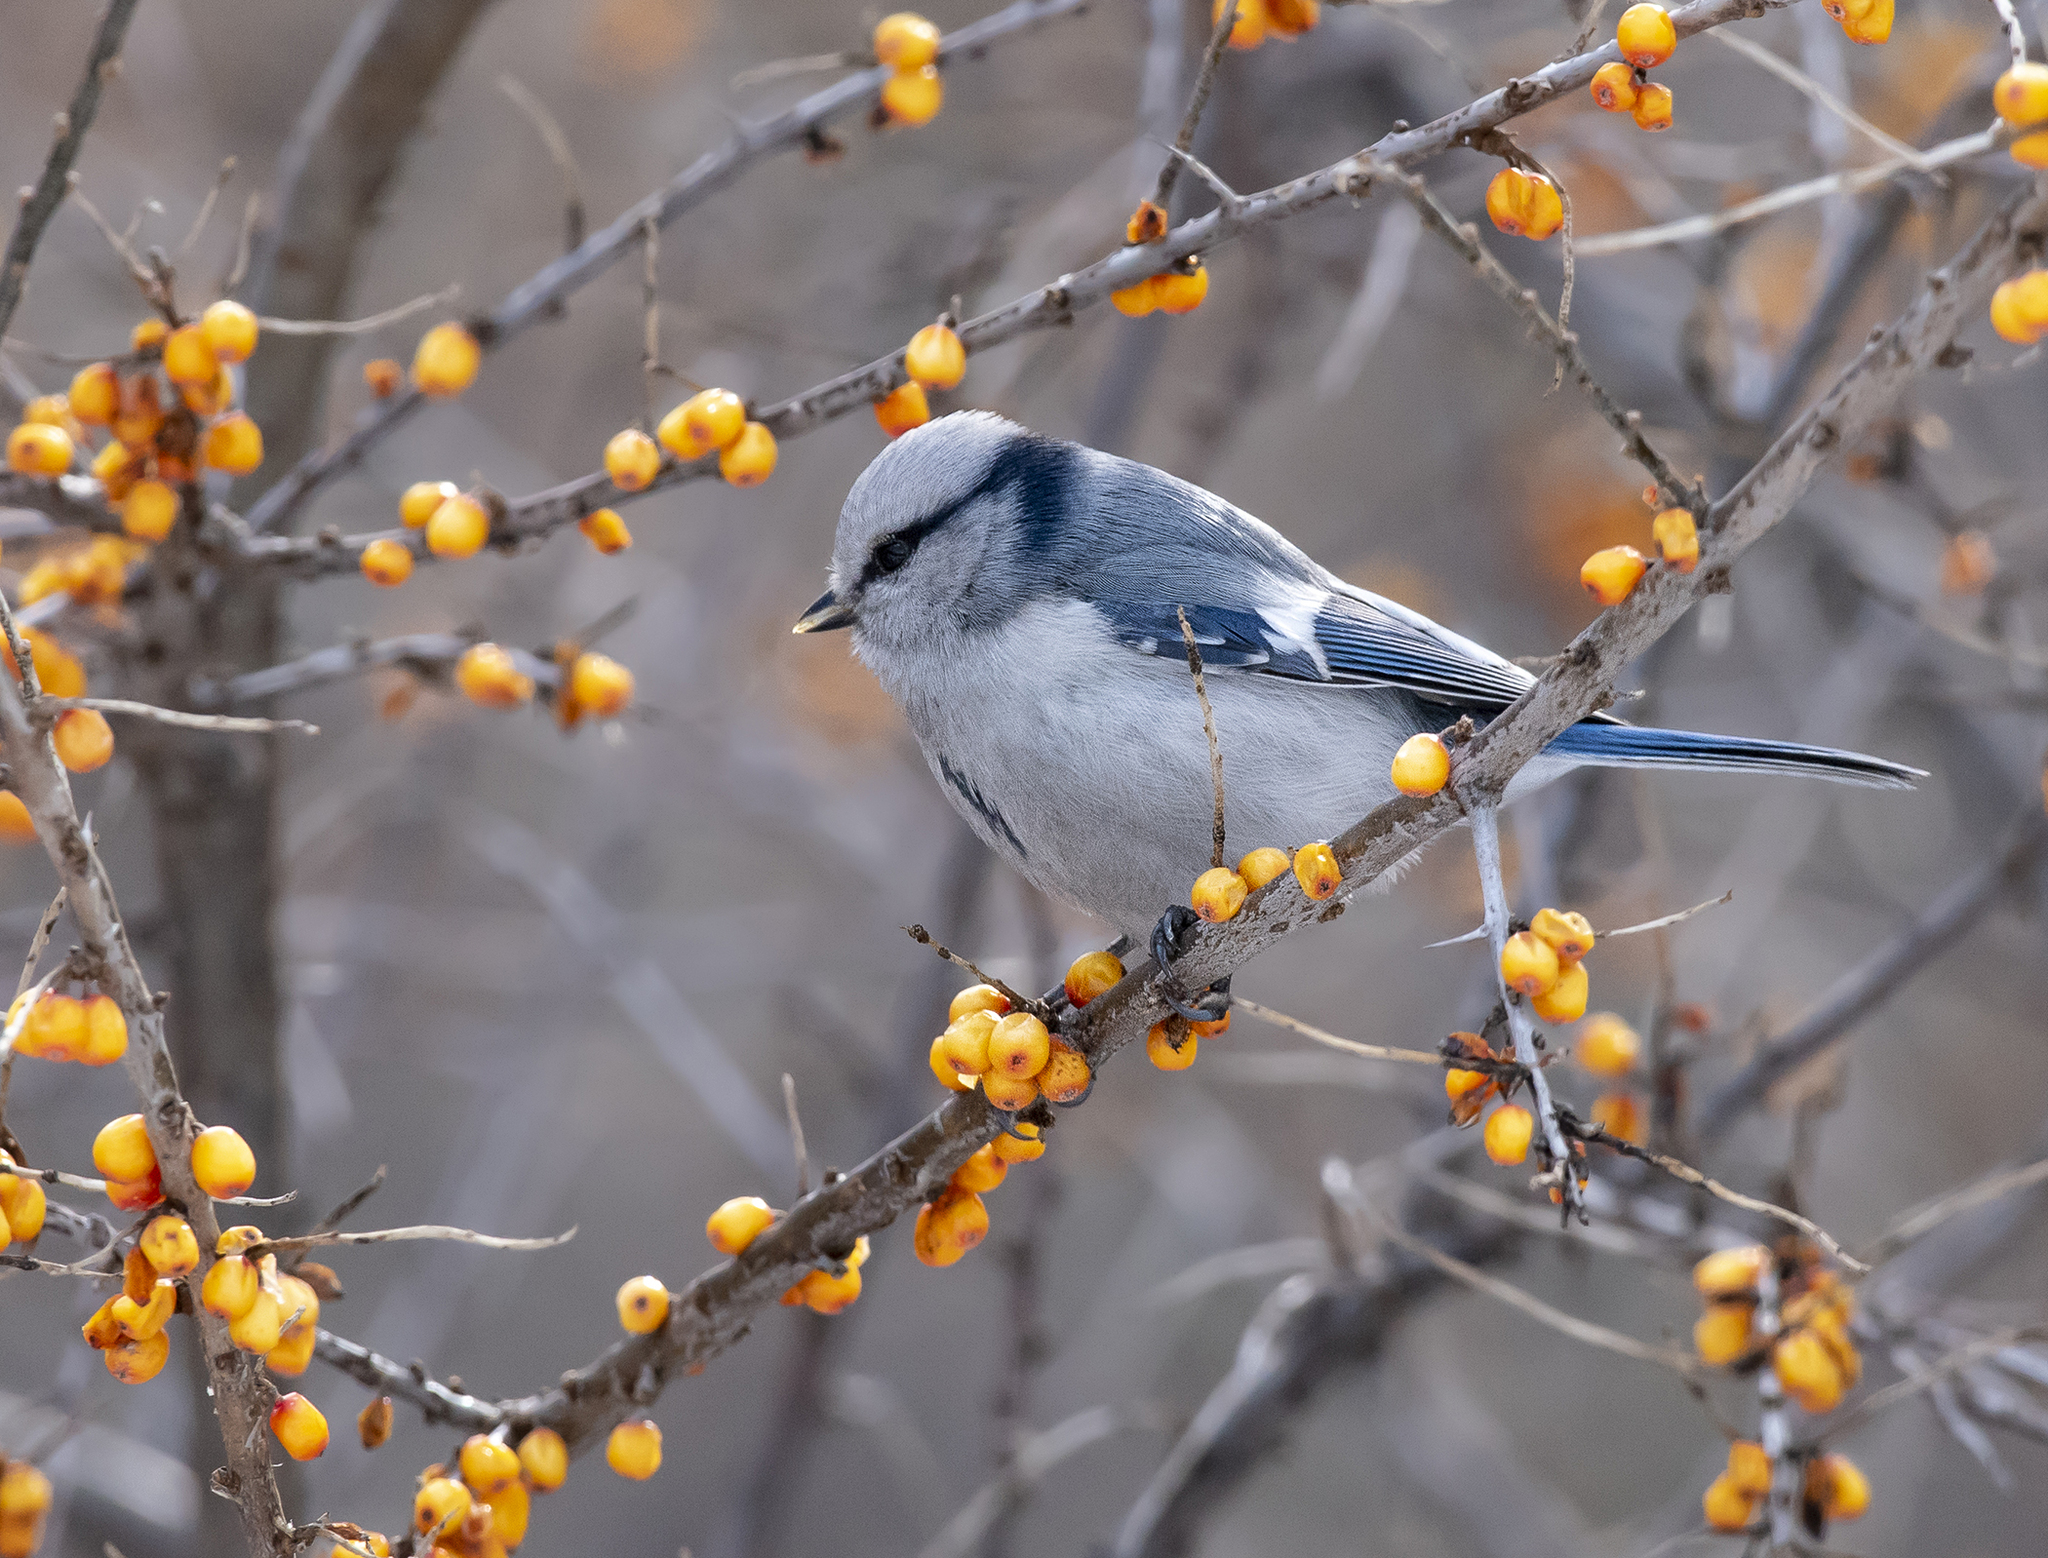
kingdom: Animalia
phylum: Chordata
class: Aves
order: Passeriformes
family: Paridae
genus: Cyanistes
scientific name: Cyanistes cyanus
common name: Azure tit
